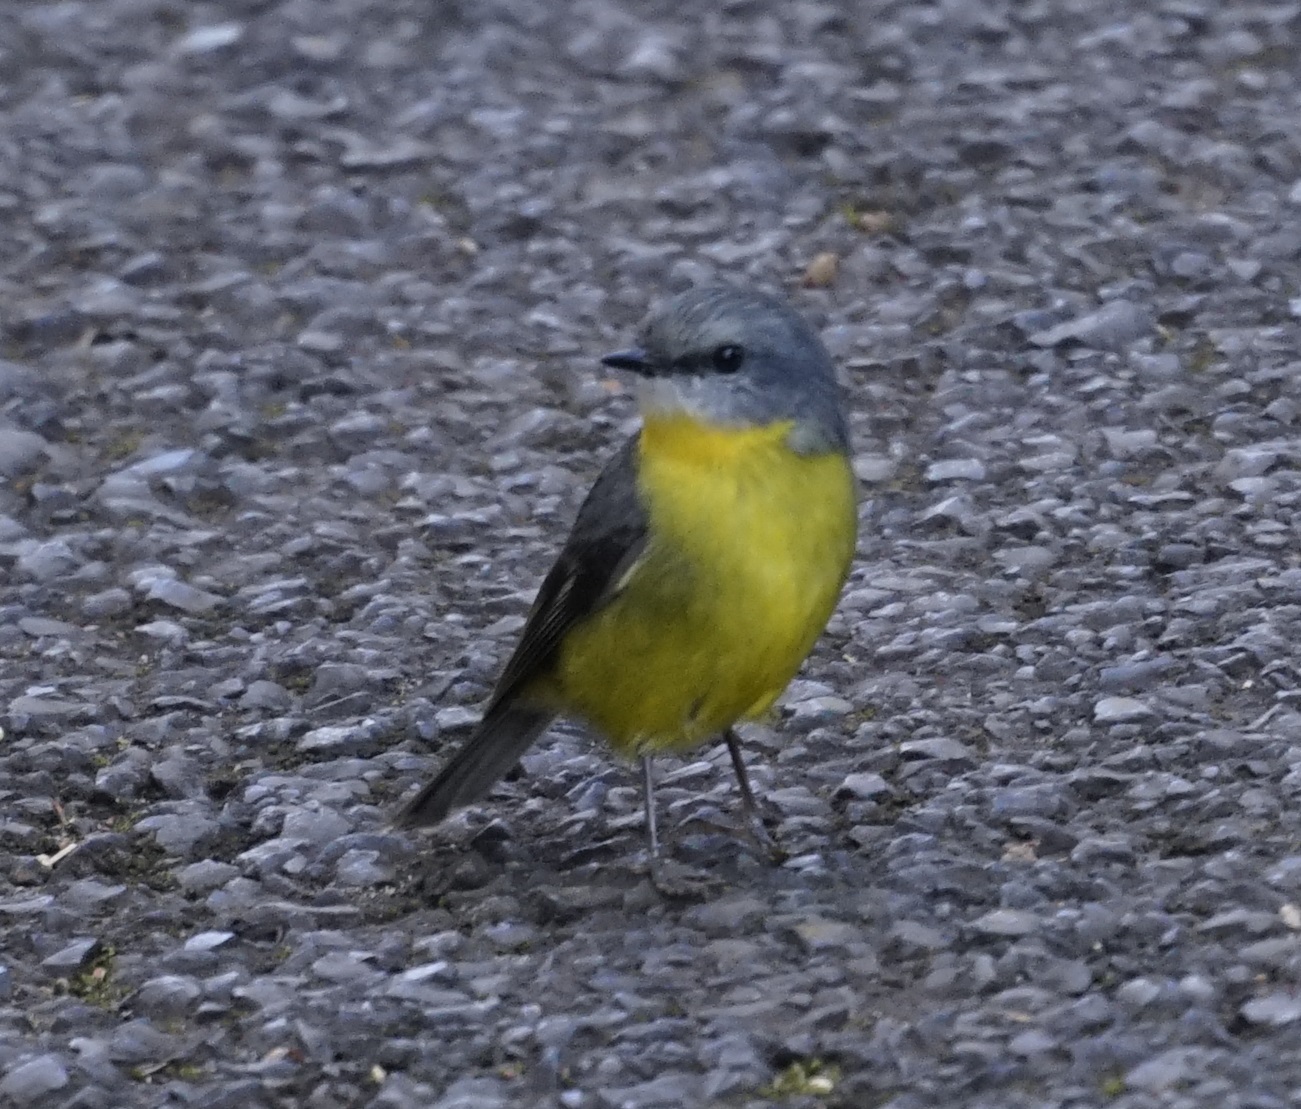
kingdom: Animalia
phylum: Chordata
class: Aves
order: Passeriformes
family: Petroicidae
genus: Eopsaltria
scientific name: Eopsaltria australis
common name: Eastern yellow robin
